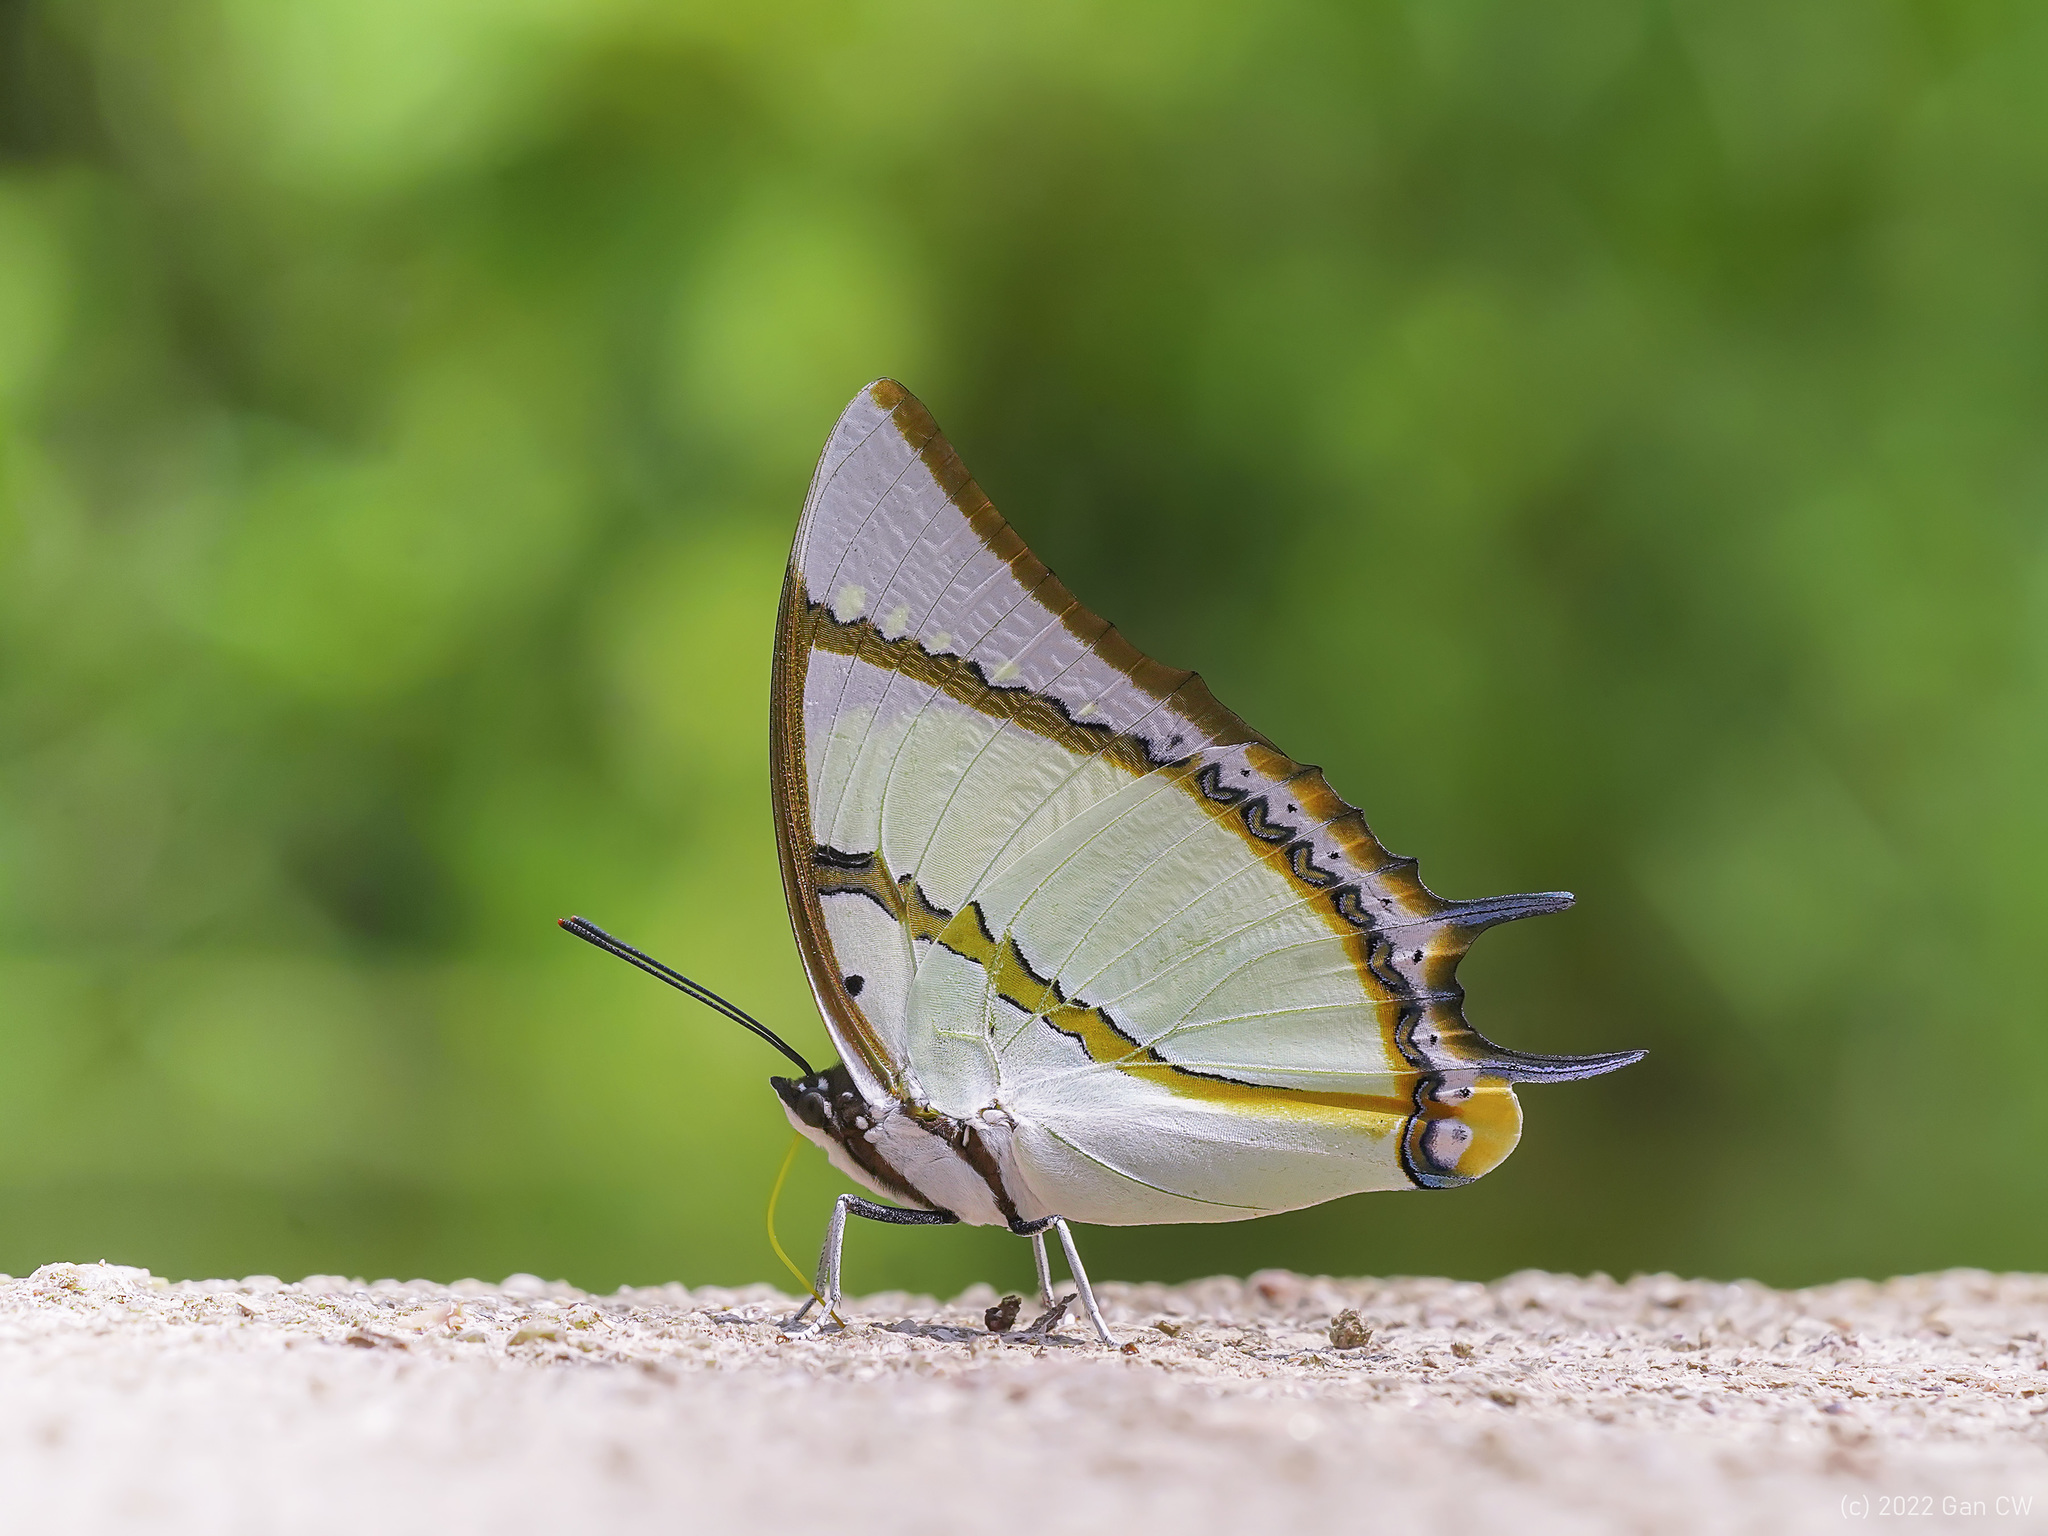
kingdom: Animalia
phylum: Arthropoda
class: Insecta
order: Lepidoptera
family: Nymphalidae
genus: Polyura
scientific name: Polyura dolon
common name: Stately nawab
